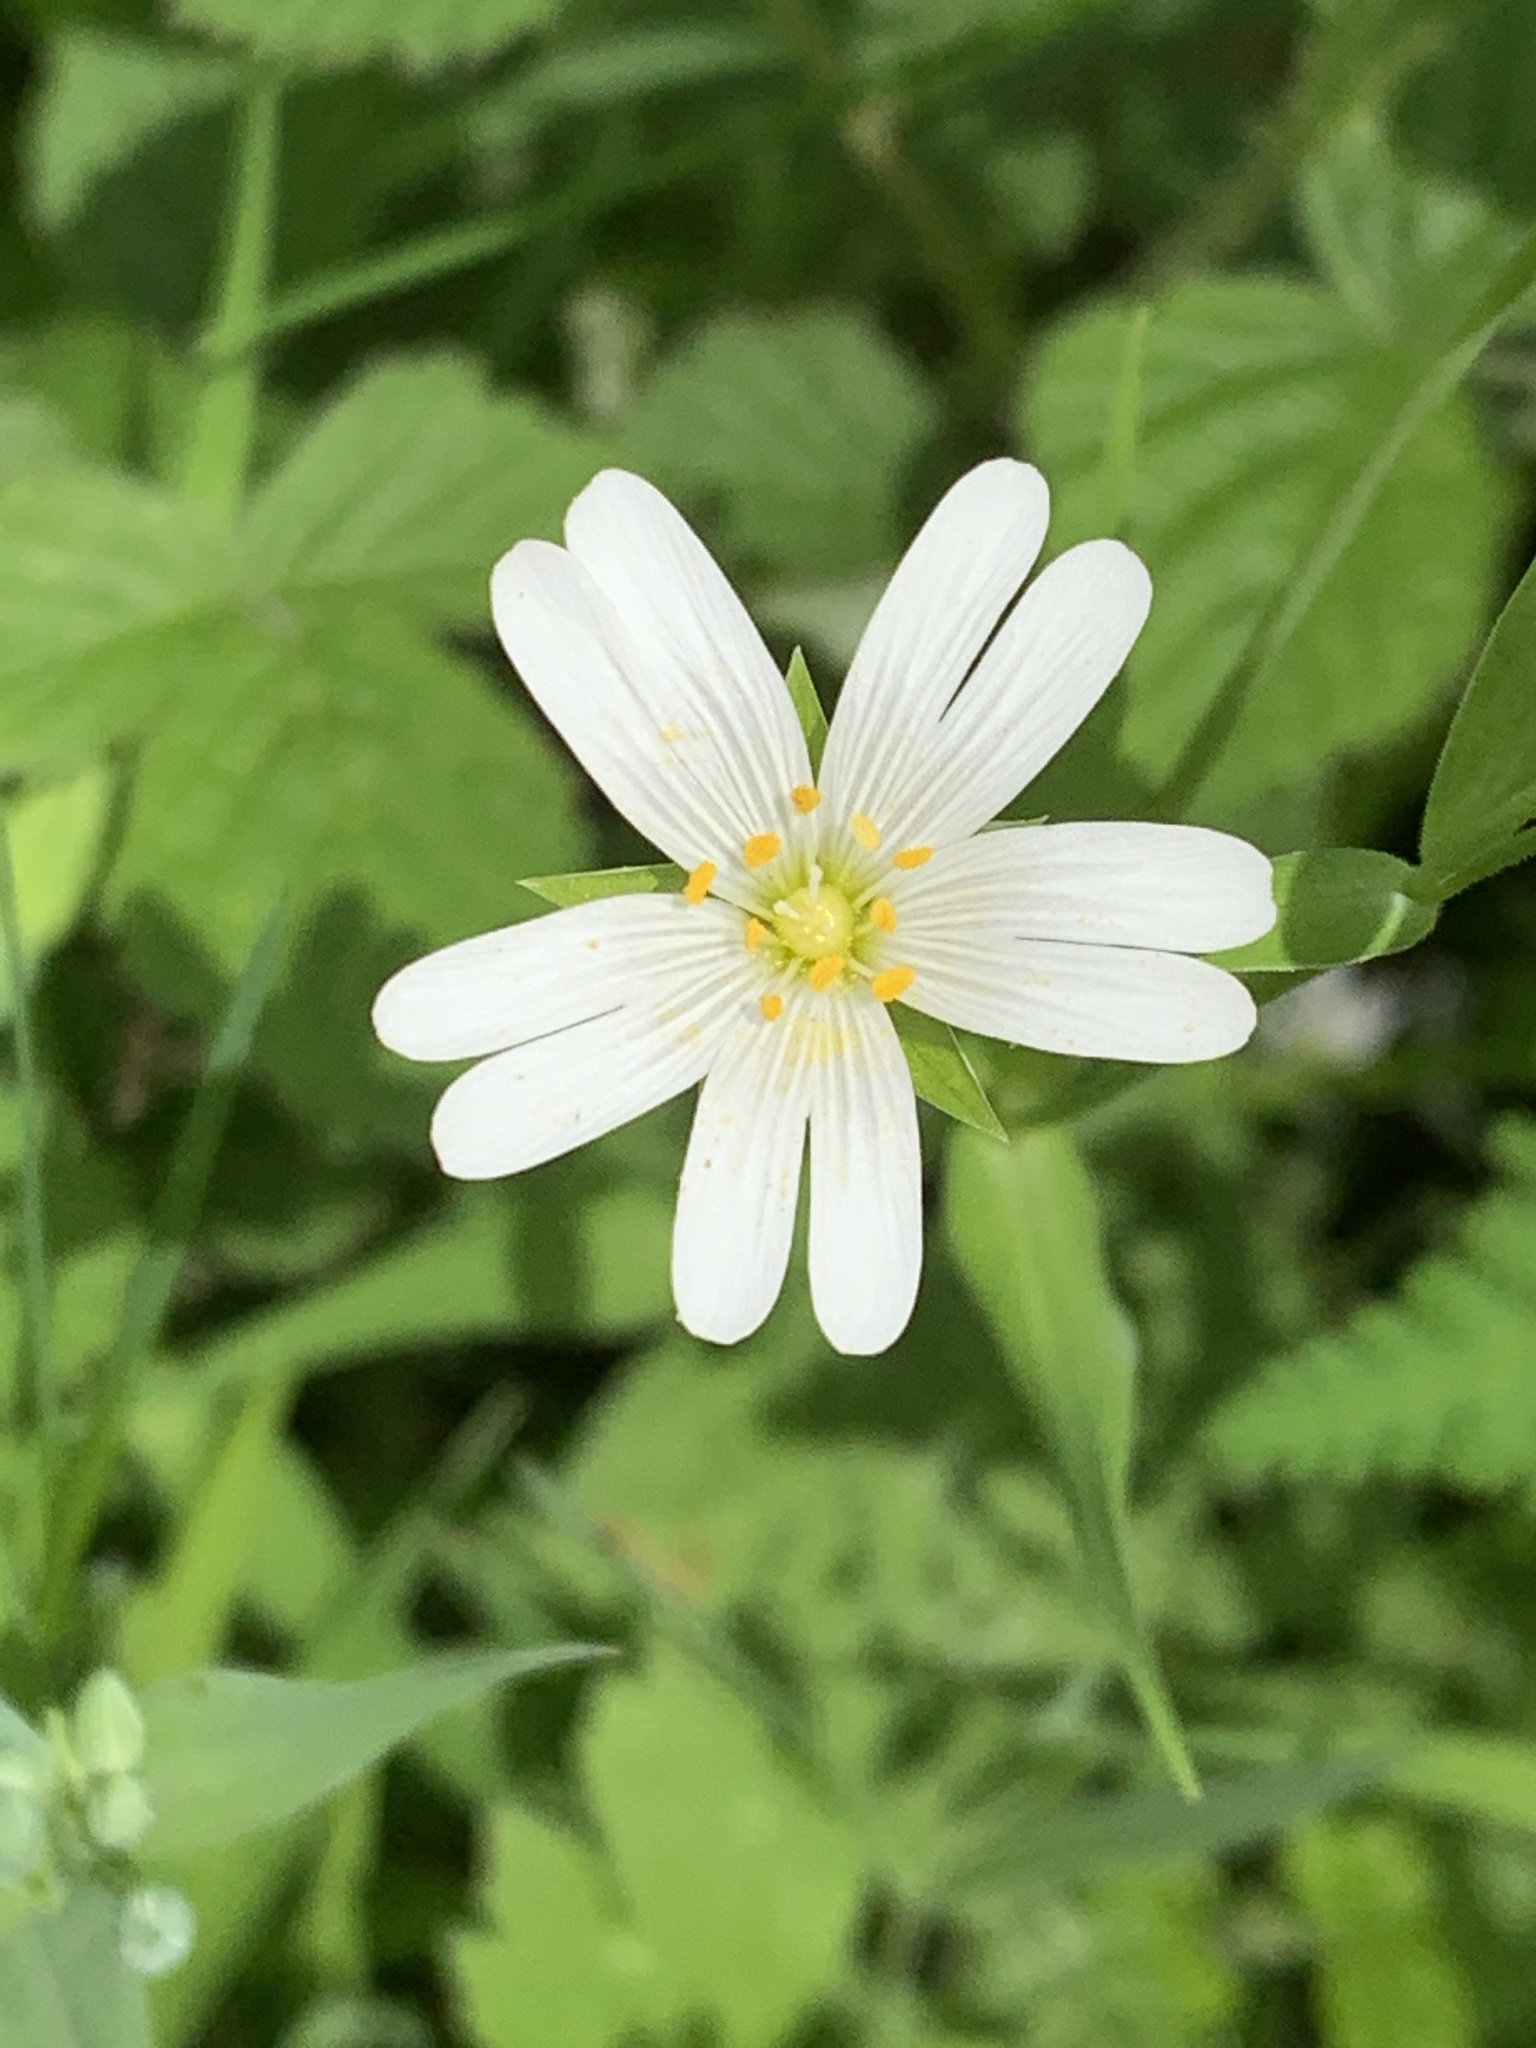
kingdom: Plantae
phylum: Tracheophyta
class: Magnoliopsida
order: Caryophyllales
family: Caryophyllaceae
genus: Rabelera
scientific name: Rabelera holostea
